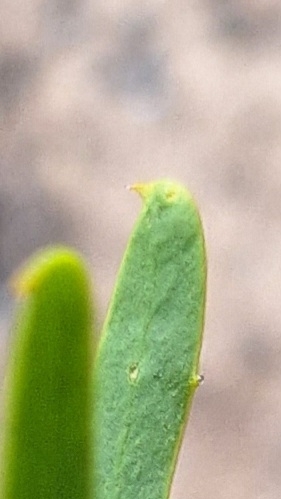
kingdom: Plantae
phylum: Tracheophyta
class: Magnoliopsida
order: Fabales
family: Fabaceae
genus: Acacia
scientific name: Acacia ligulata
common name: Dune wattle
